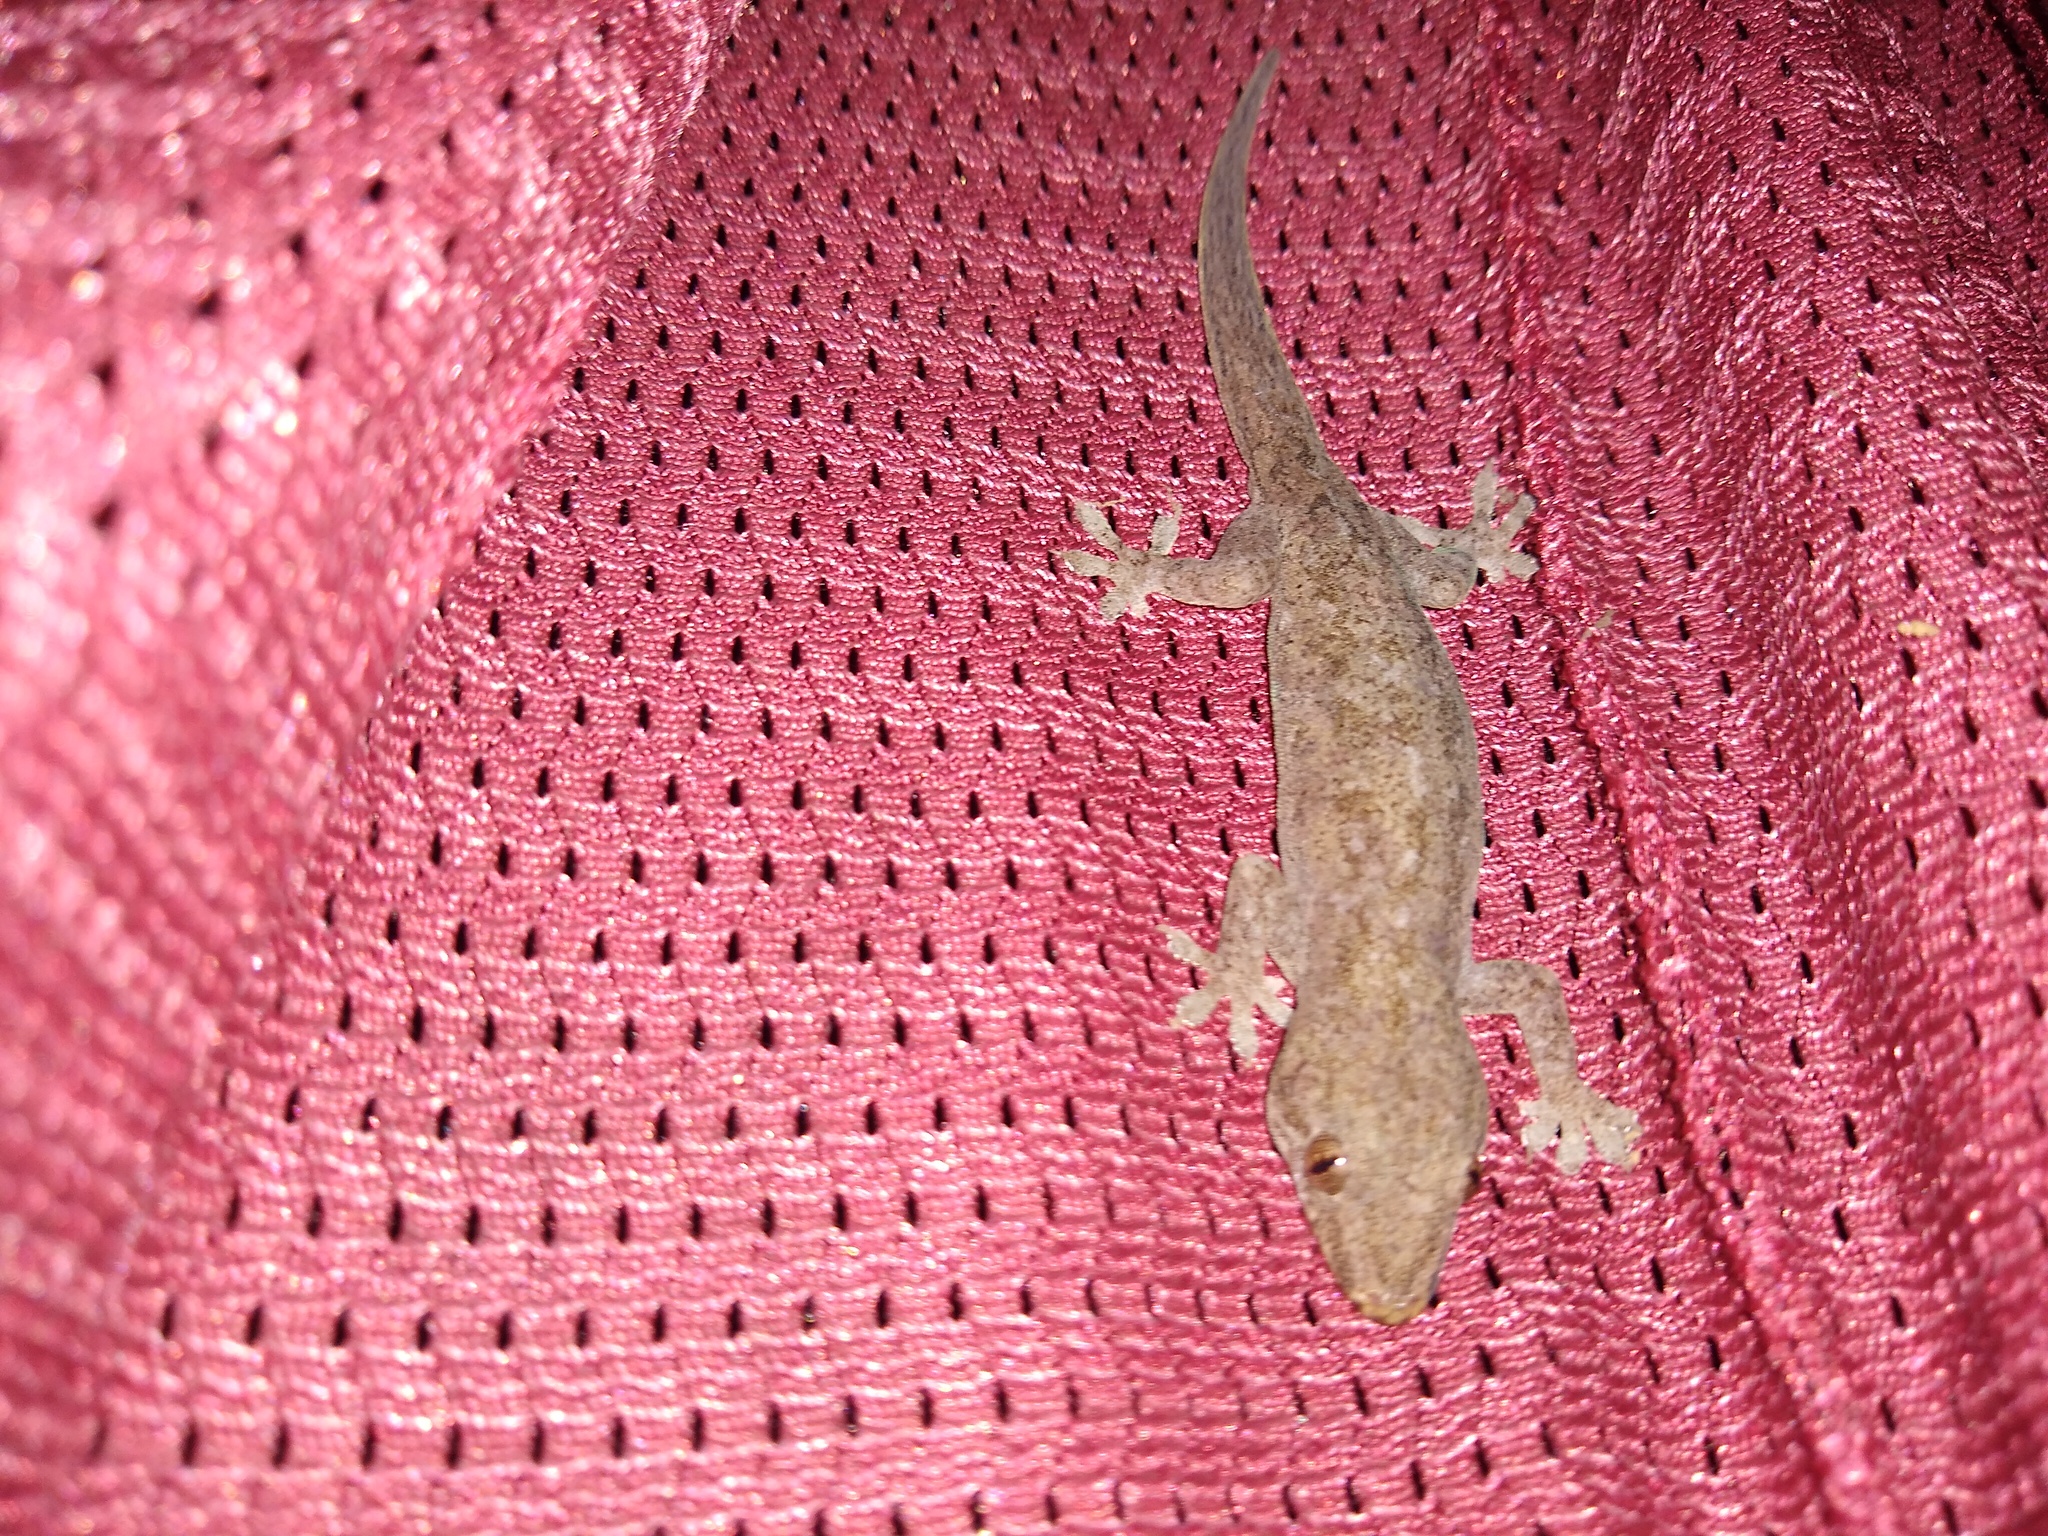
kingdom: Animalia
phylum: Chordata
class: Squamata
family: Gekkonidae
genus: Hemidactylus
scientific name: Hemidactylus frenatus
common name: Common house gecko
